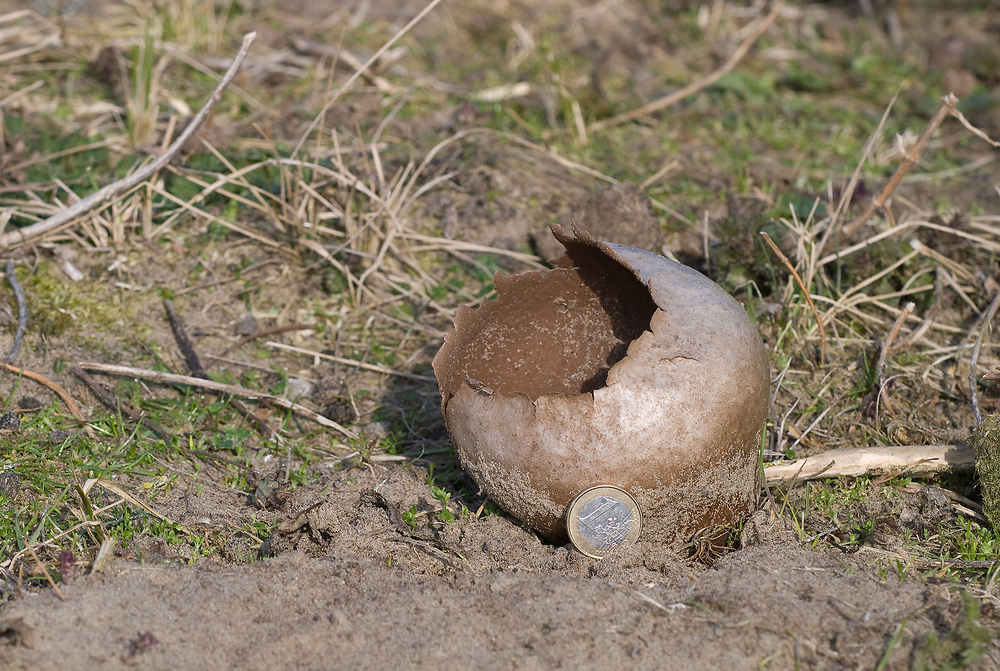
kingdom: Fungi
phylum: Basidiomycota
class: Agaricomycetes
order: Agaricales
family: Lycoperdaceae
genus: Bovistella
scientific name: Bovistella utriformis
